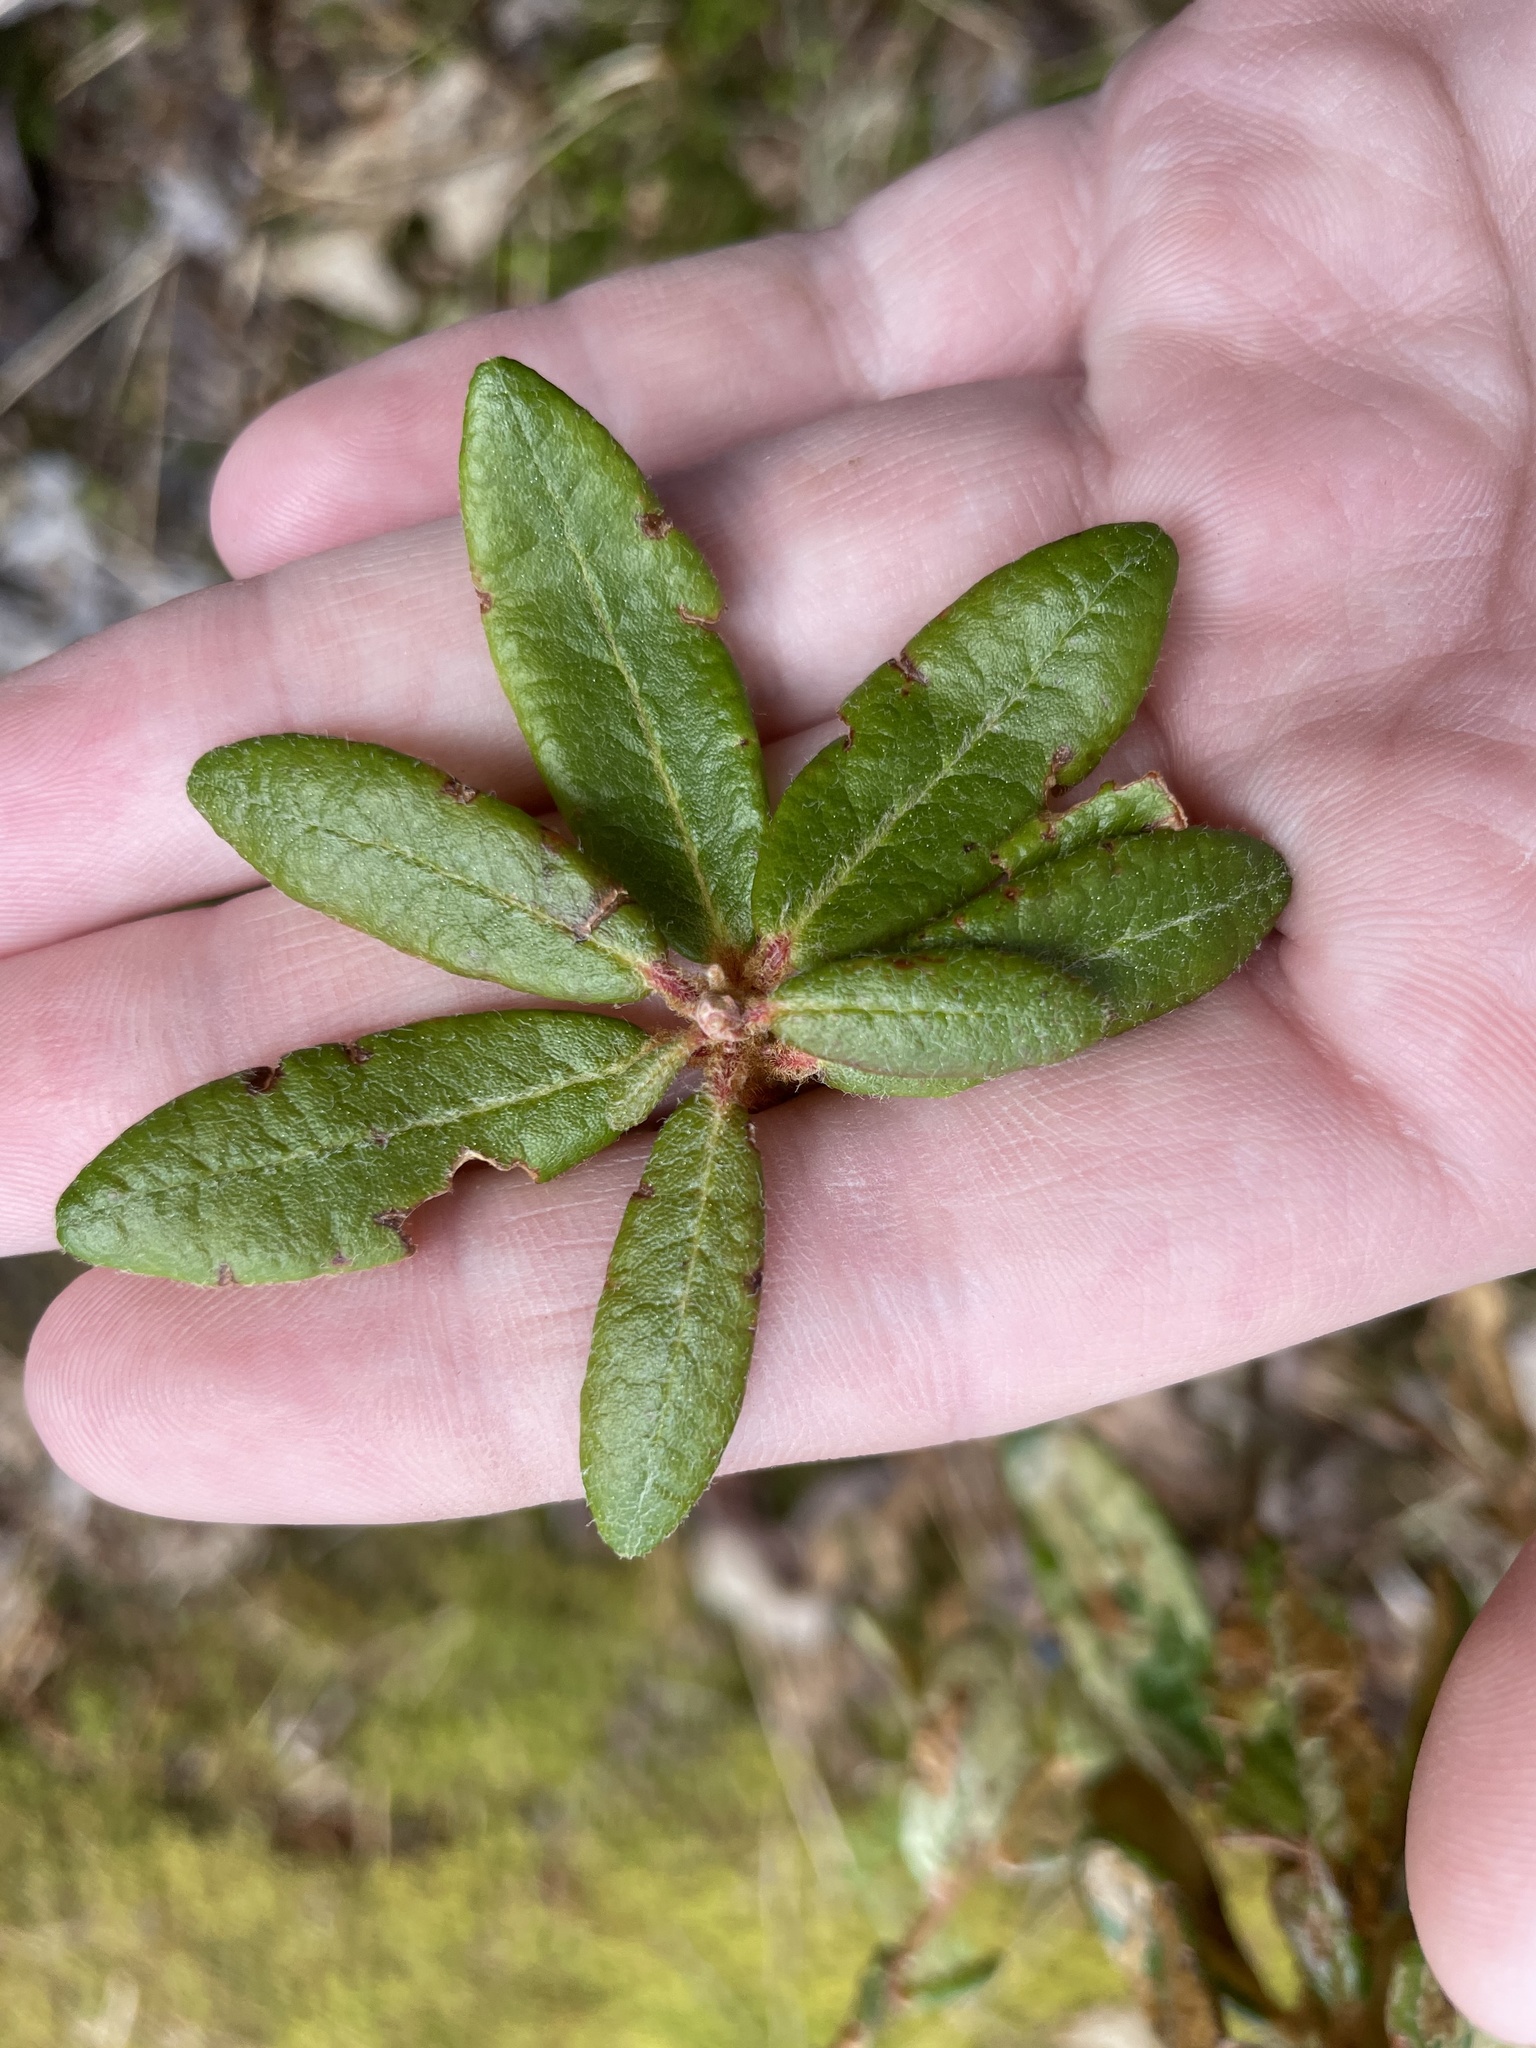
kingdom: Plantae
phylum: Tracheophyta
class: Magnoliopsida
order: Ericales
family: Ericaceae
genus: Rhododendron
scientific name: Rhododendron groenlandicum
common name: Bog labrador tea
